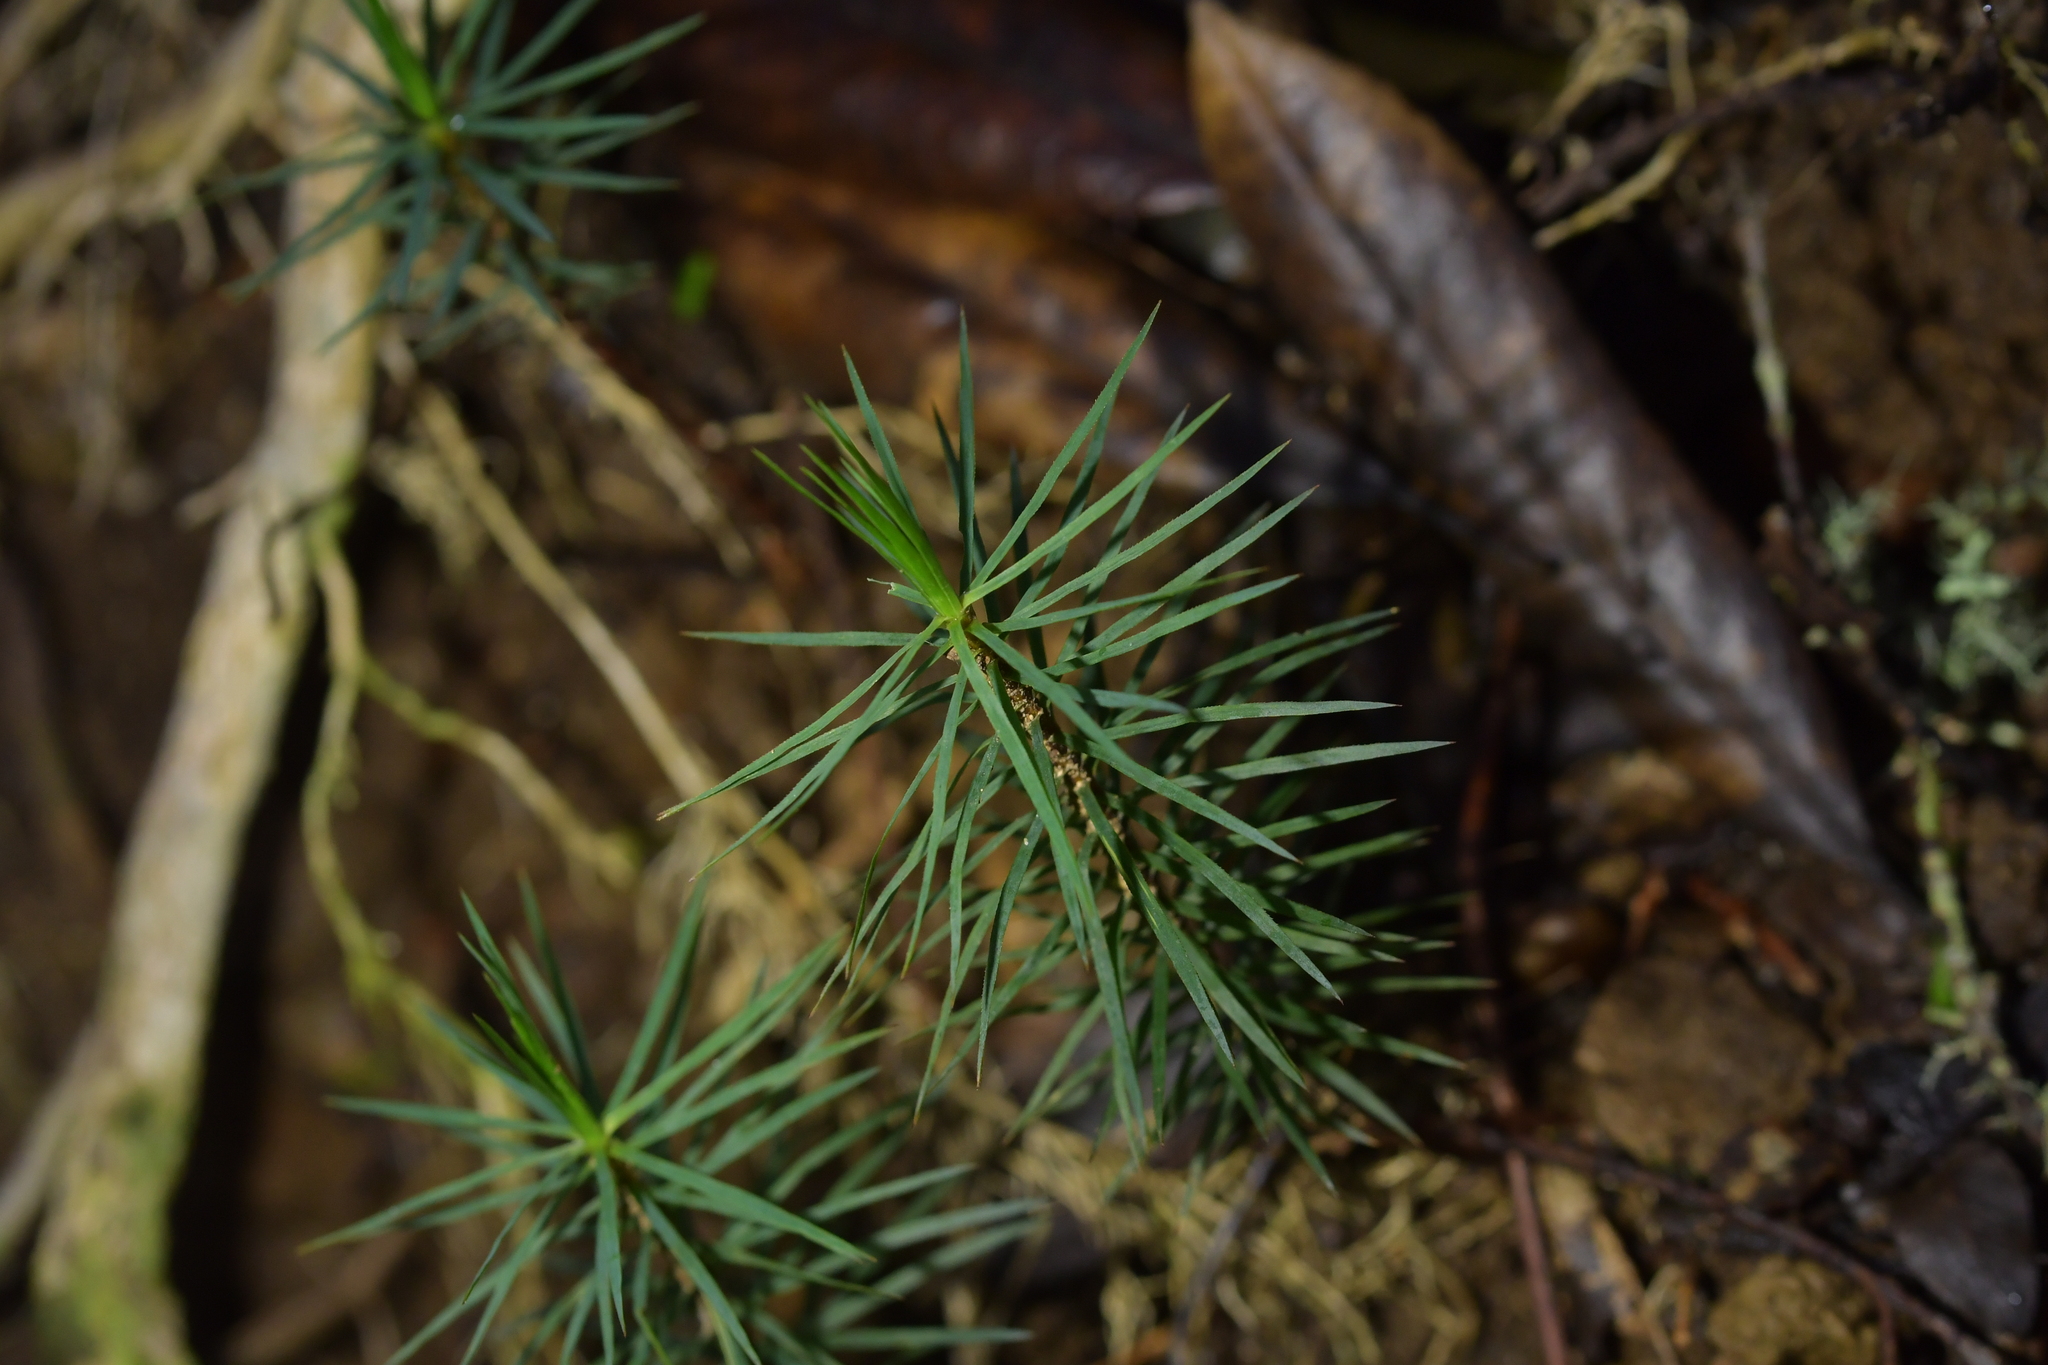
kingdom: Plantae
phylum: Bryophyta
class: Polytrichopsida
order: Polytrichales
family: Polytrichaceae
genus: Dawsonia
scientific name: Dawsonia superba
